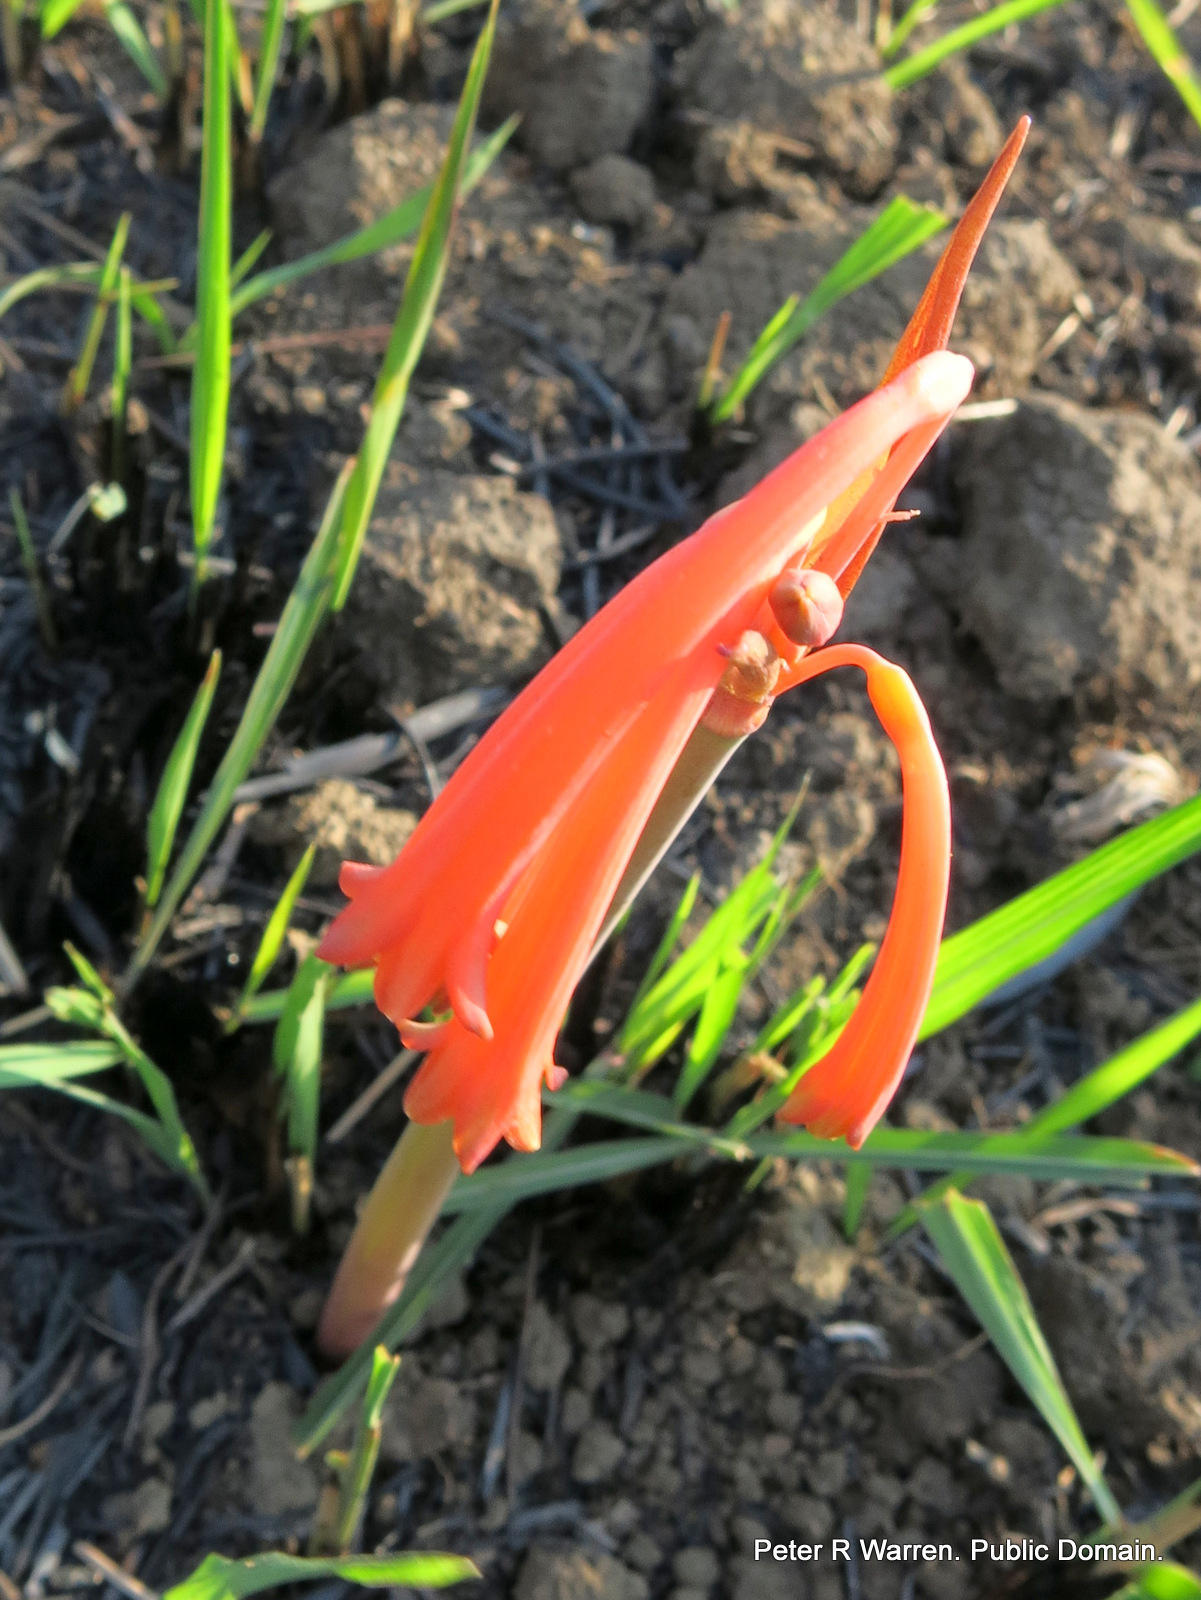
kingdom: Plantae
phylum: Tracheophyta
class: Liliopsida
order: Asparagales
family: Amaryllidaceae
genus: Cyrtanthus
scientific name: Cyrtanthus tuckii
